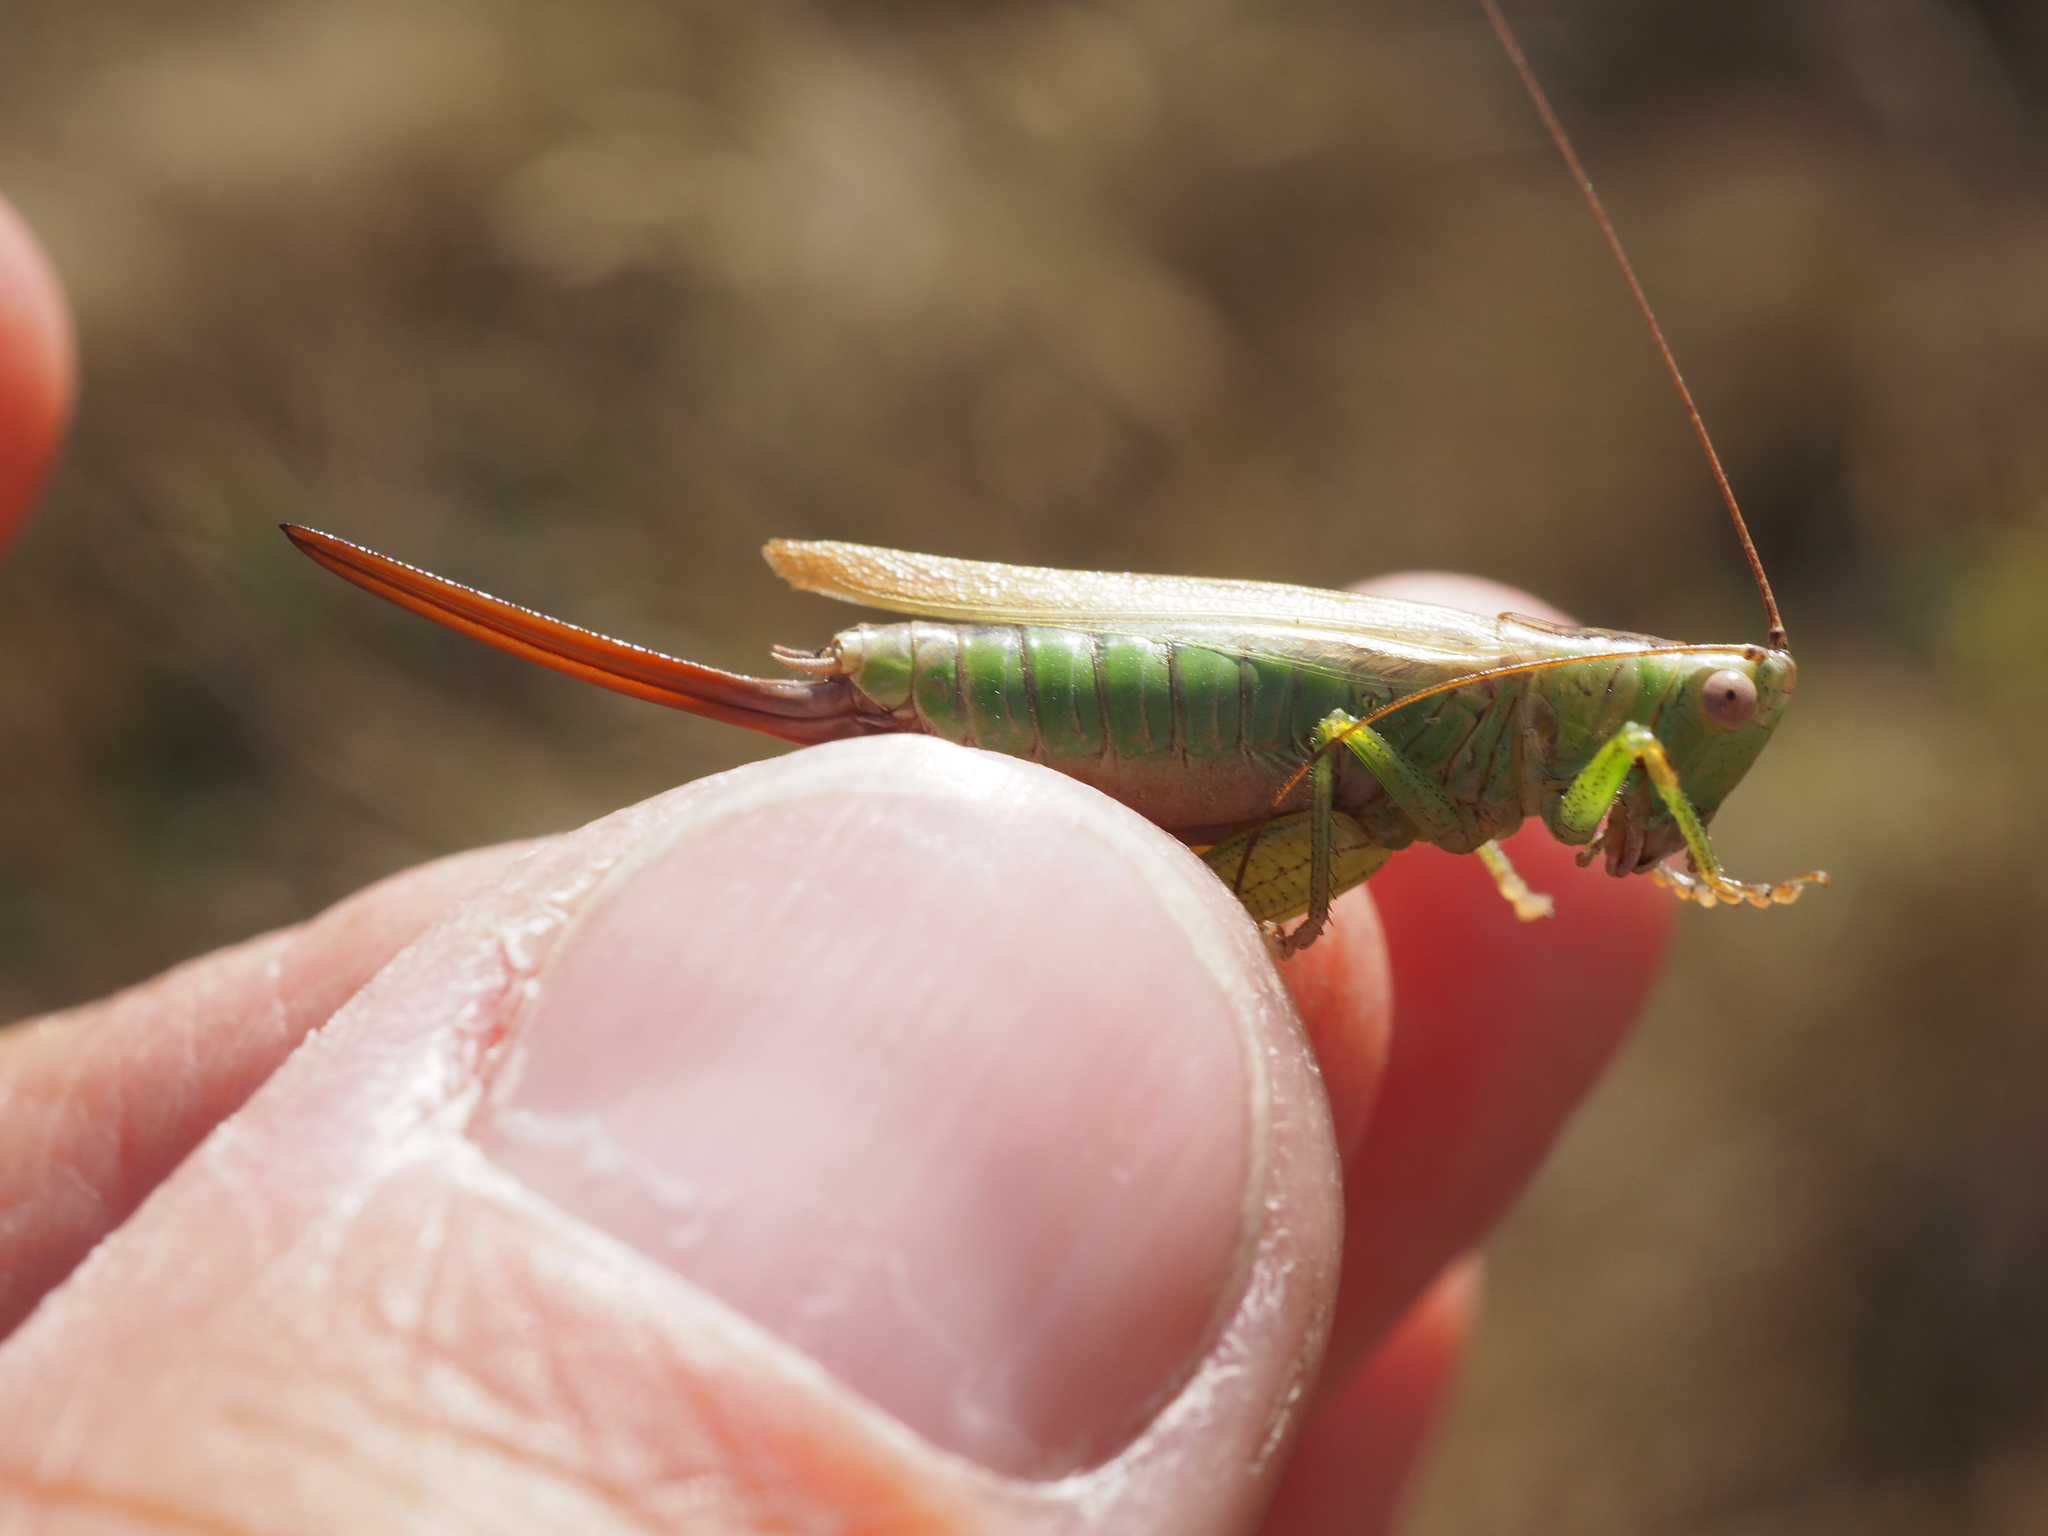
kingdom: Animalia
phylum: Arthropoda
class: Insecta
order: Orthoptera
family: Tettigoniidae
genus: Conocephalus
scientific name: Conocephalus fuscus
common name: Long-winged conehead
